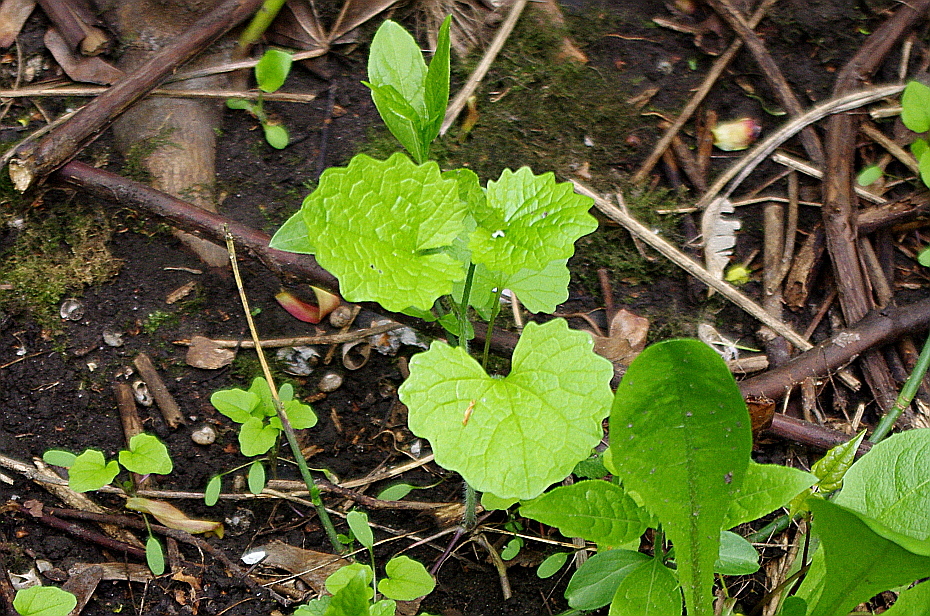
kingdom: Plantae
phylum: Tracheophyta
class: Magnoliopsida
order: Brassicales
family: Brassicaceae
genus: Alliaria
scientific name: Alliaria petiolata
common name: Garlic mustard
